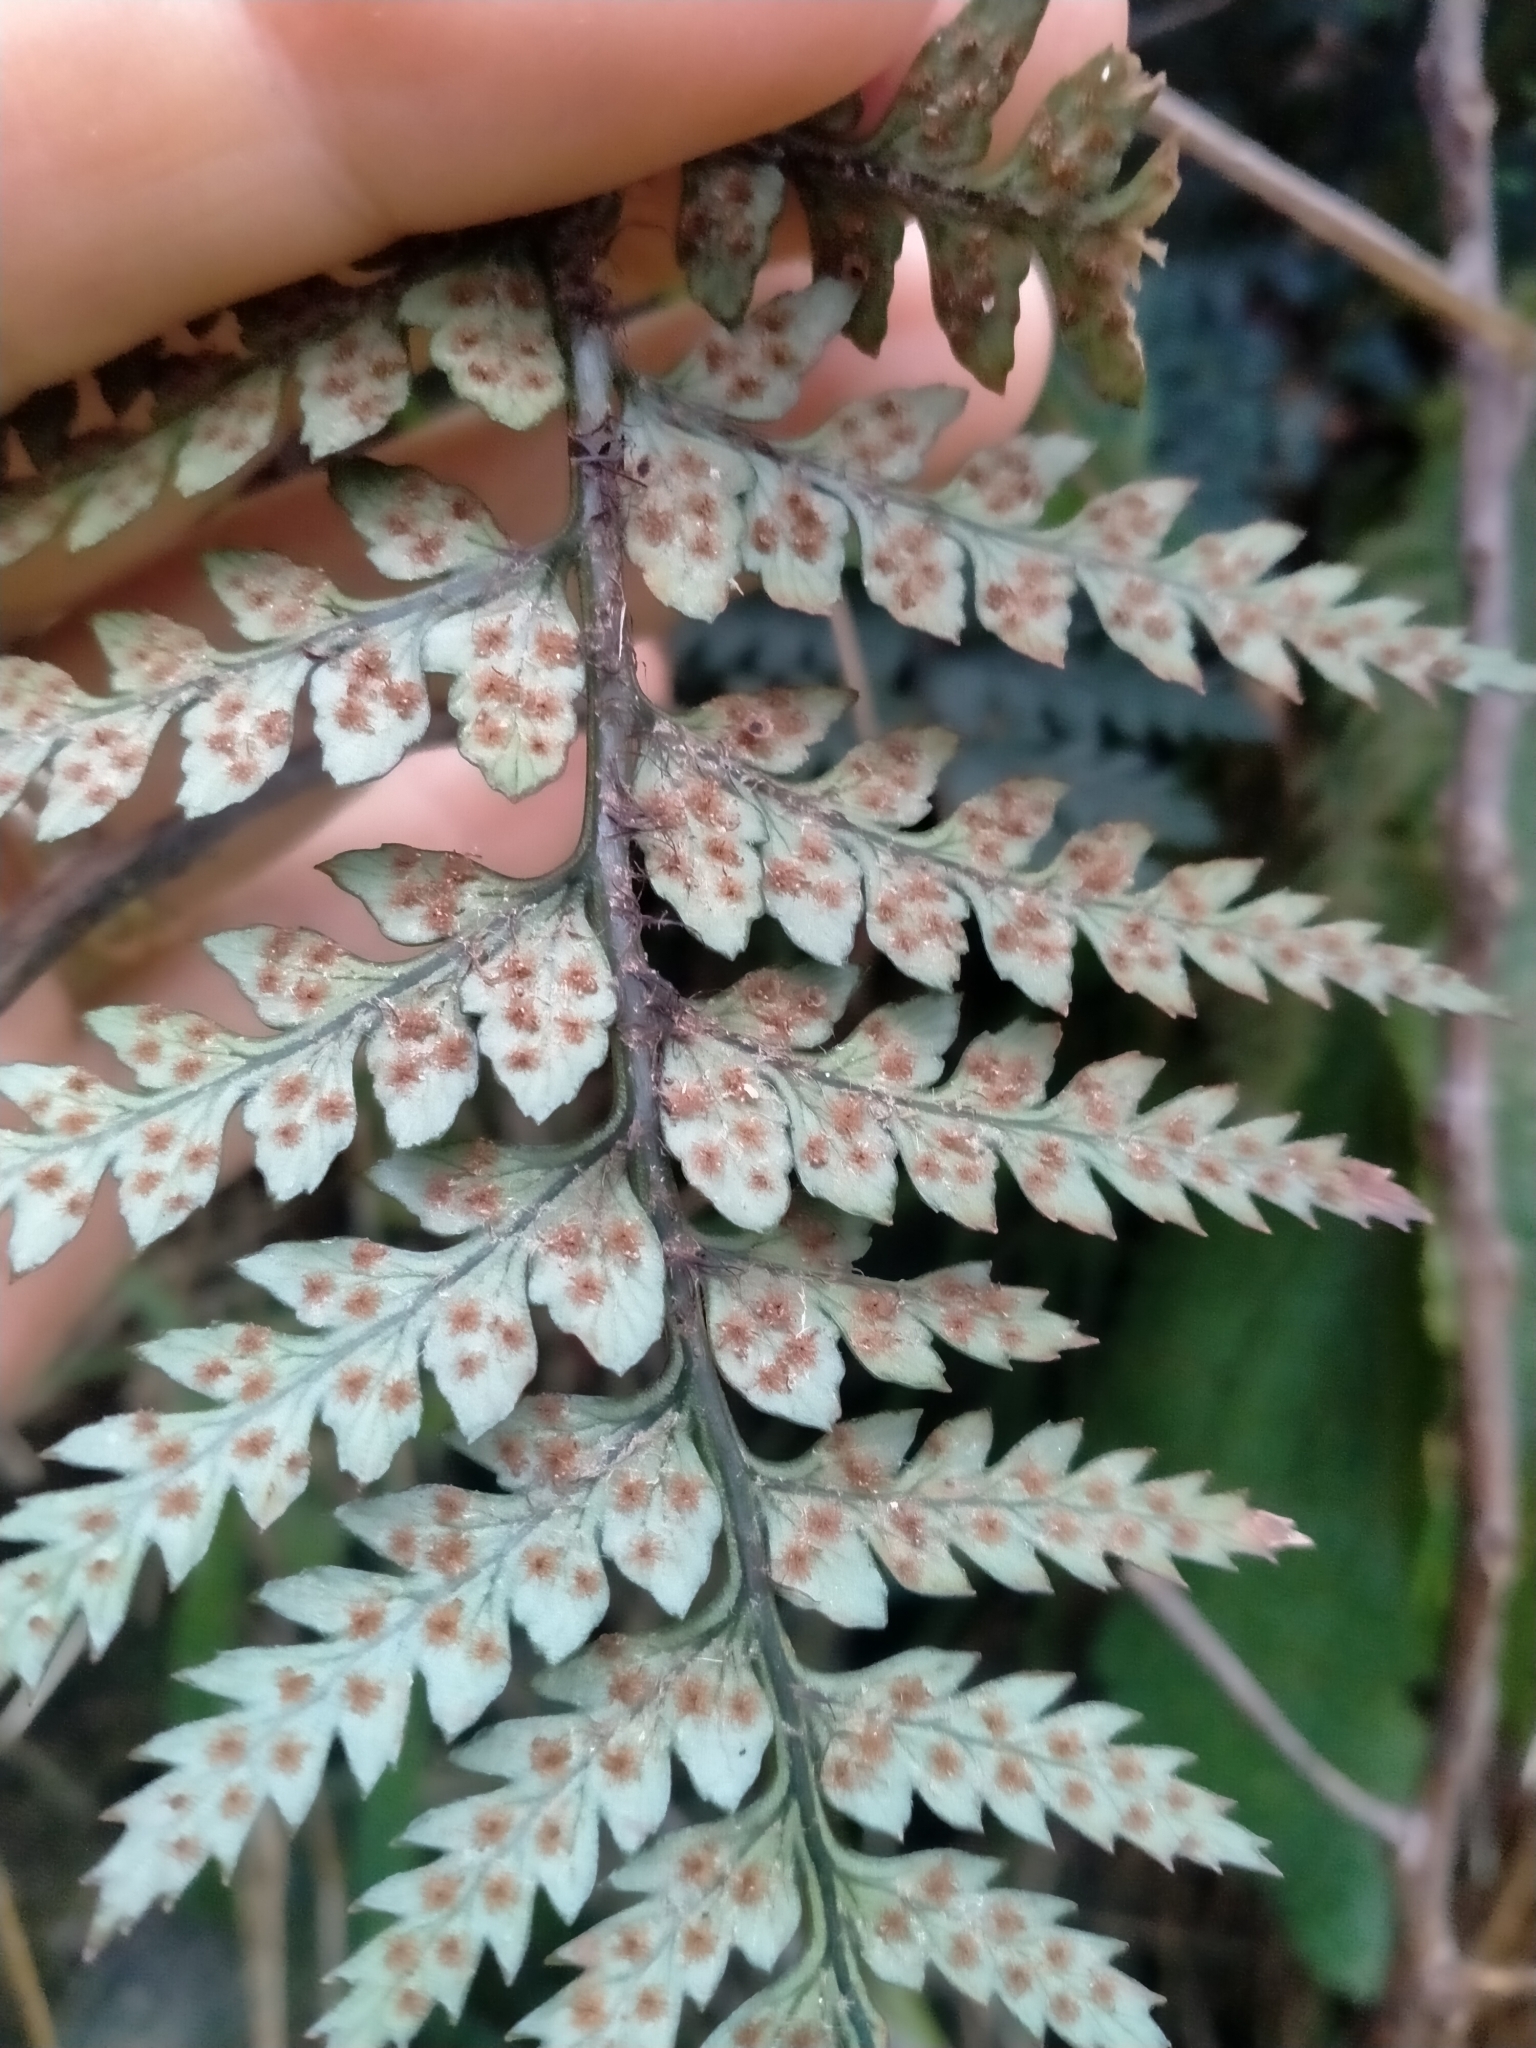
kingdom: Plantae
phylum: Tracheophyta
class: Polypodiopsida
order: Polypodiales
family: Dryopteridaceae
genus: Polystichum
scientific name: Polystichum neozelandicum
